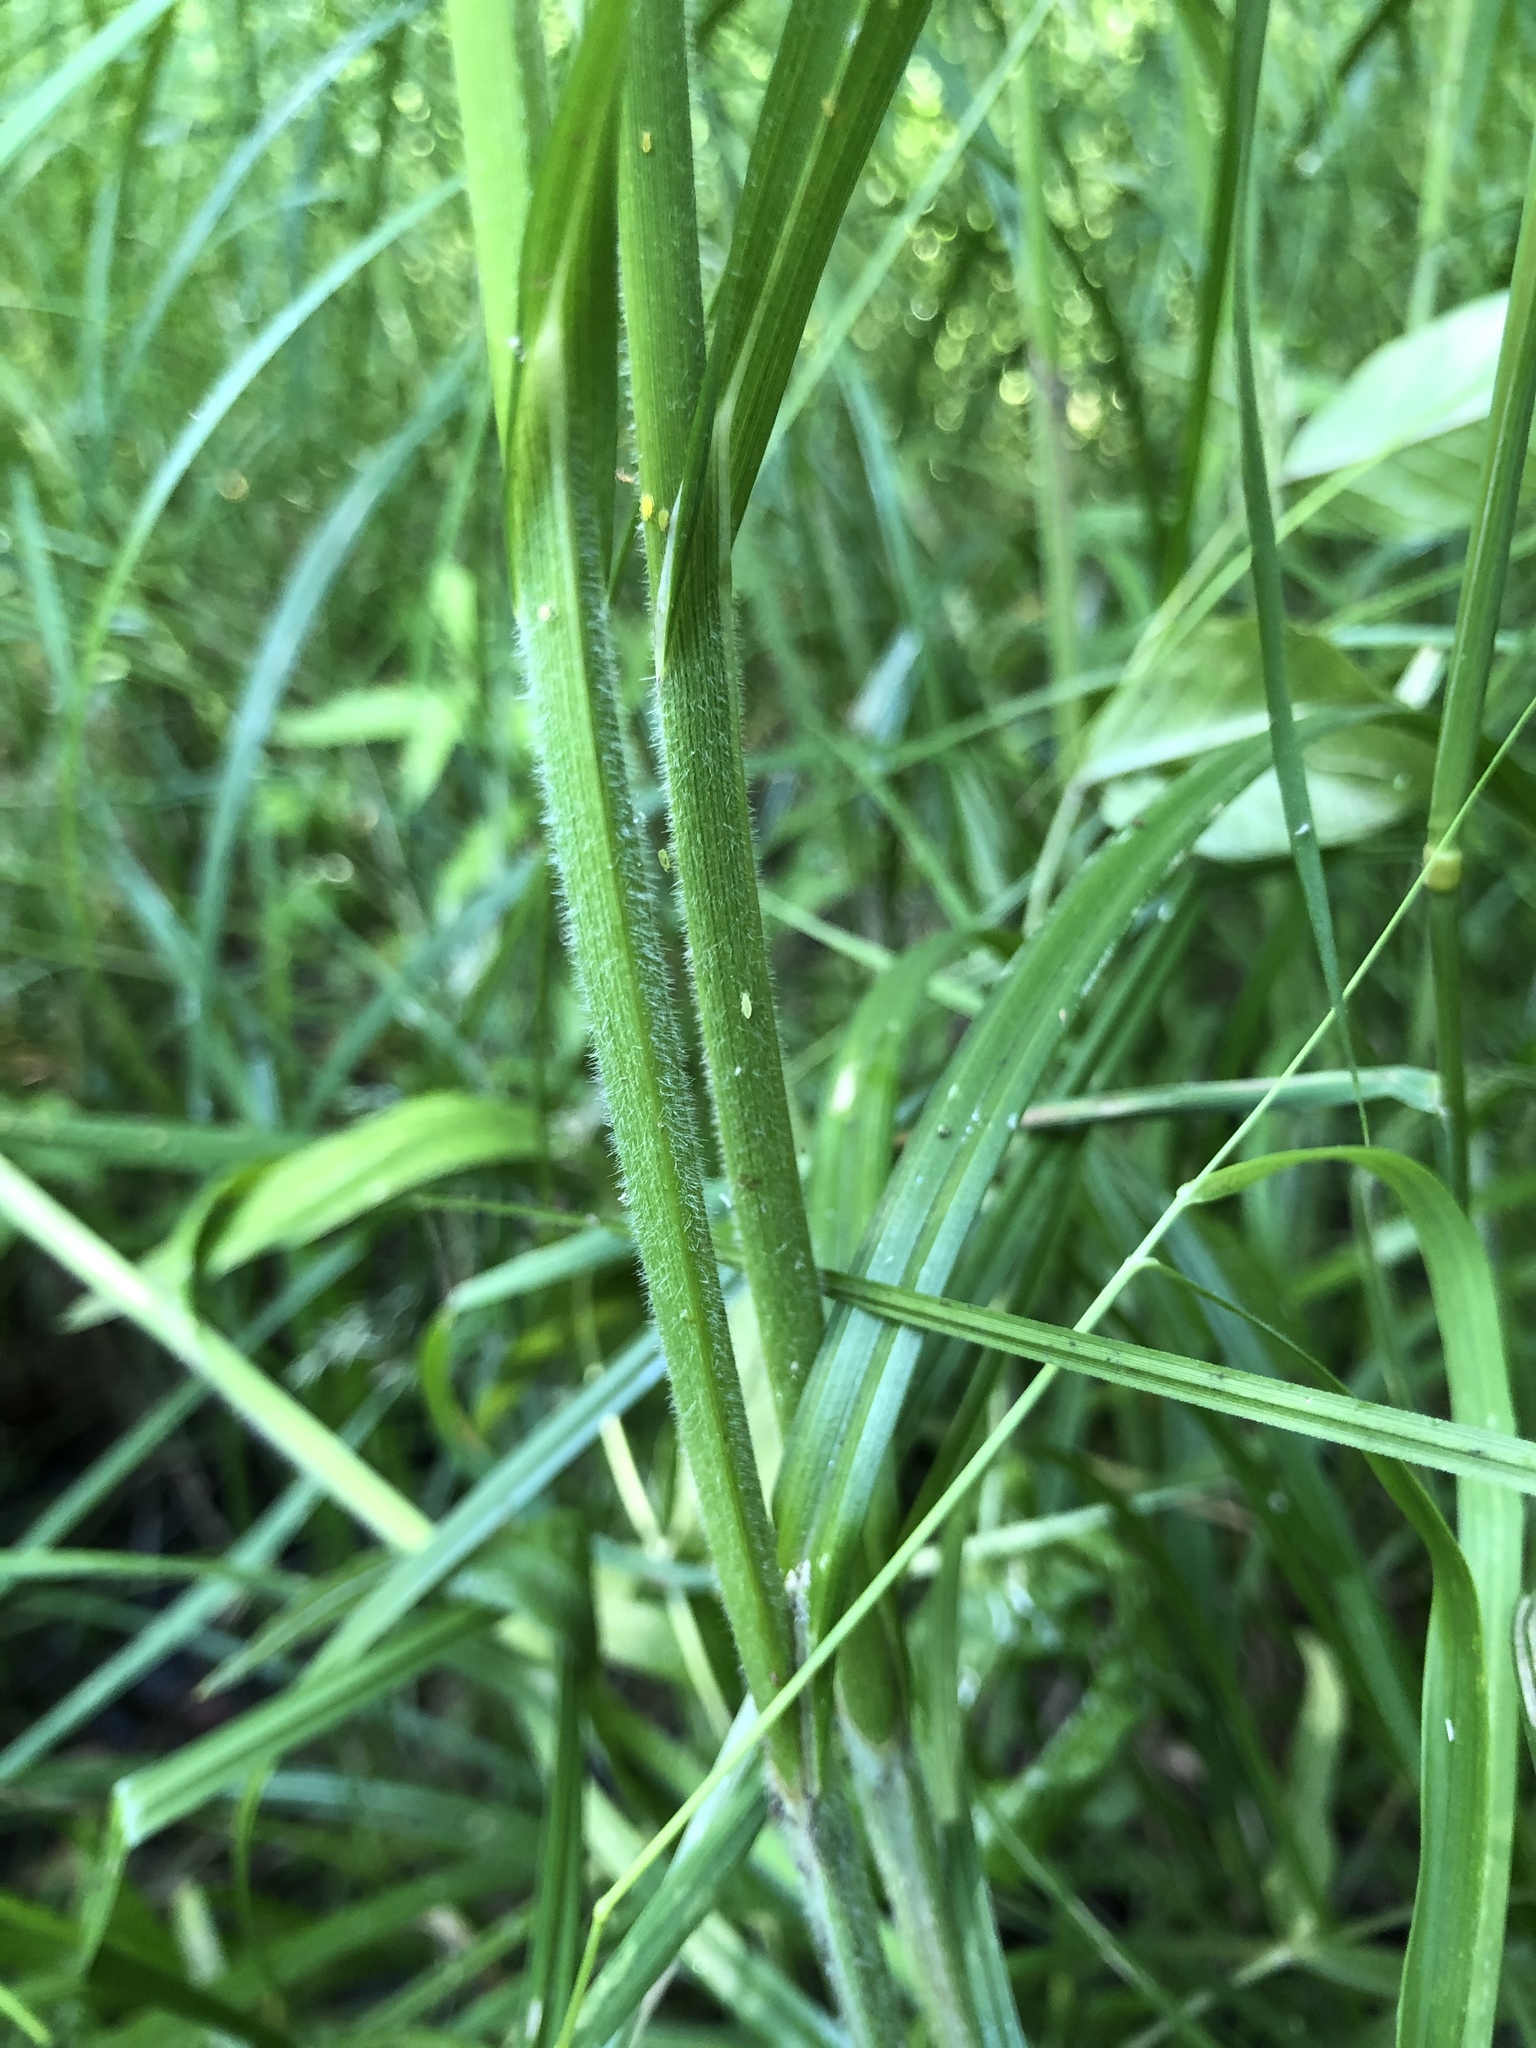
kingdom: Plantae
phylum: Tracheophyta
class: Liliopsida
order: Poales
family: Cyperaceae
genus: Carex
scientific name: Carex atherodes
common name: Wheat sedge
